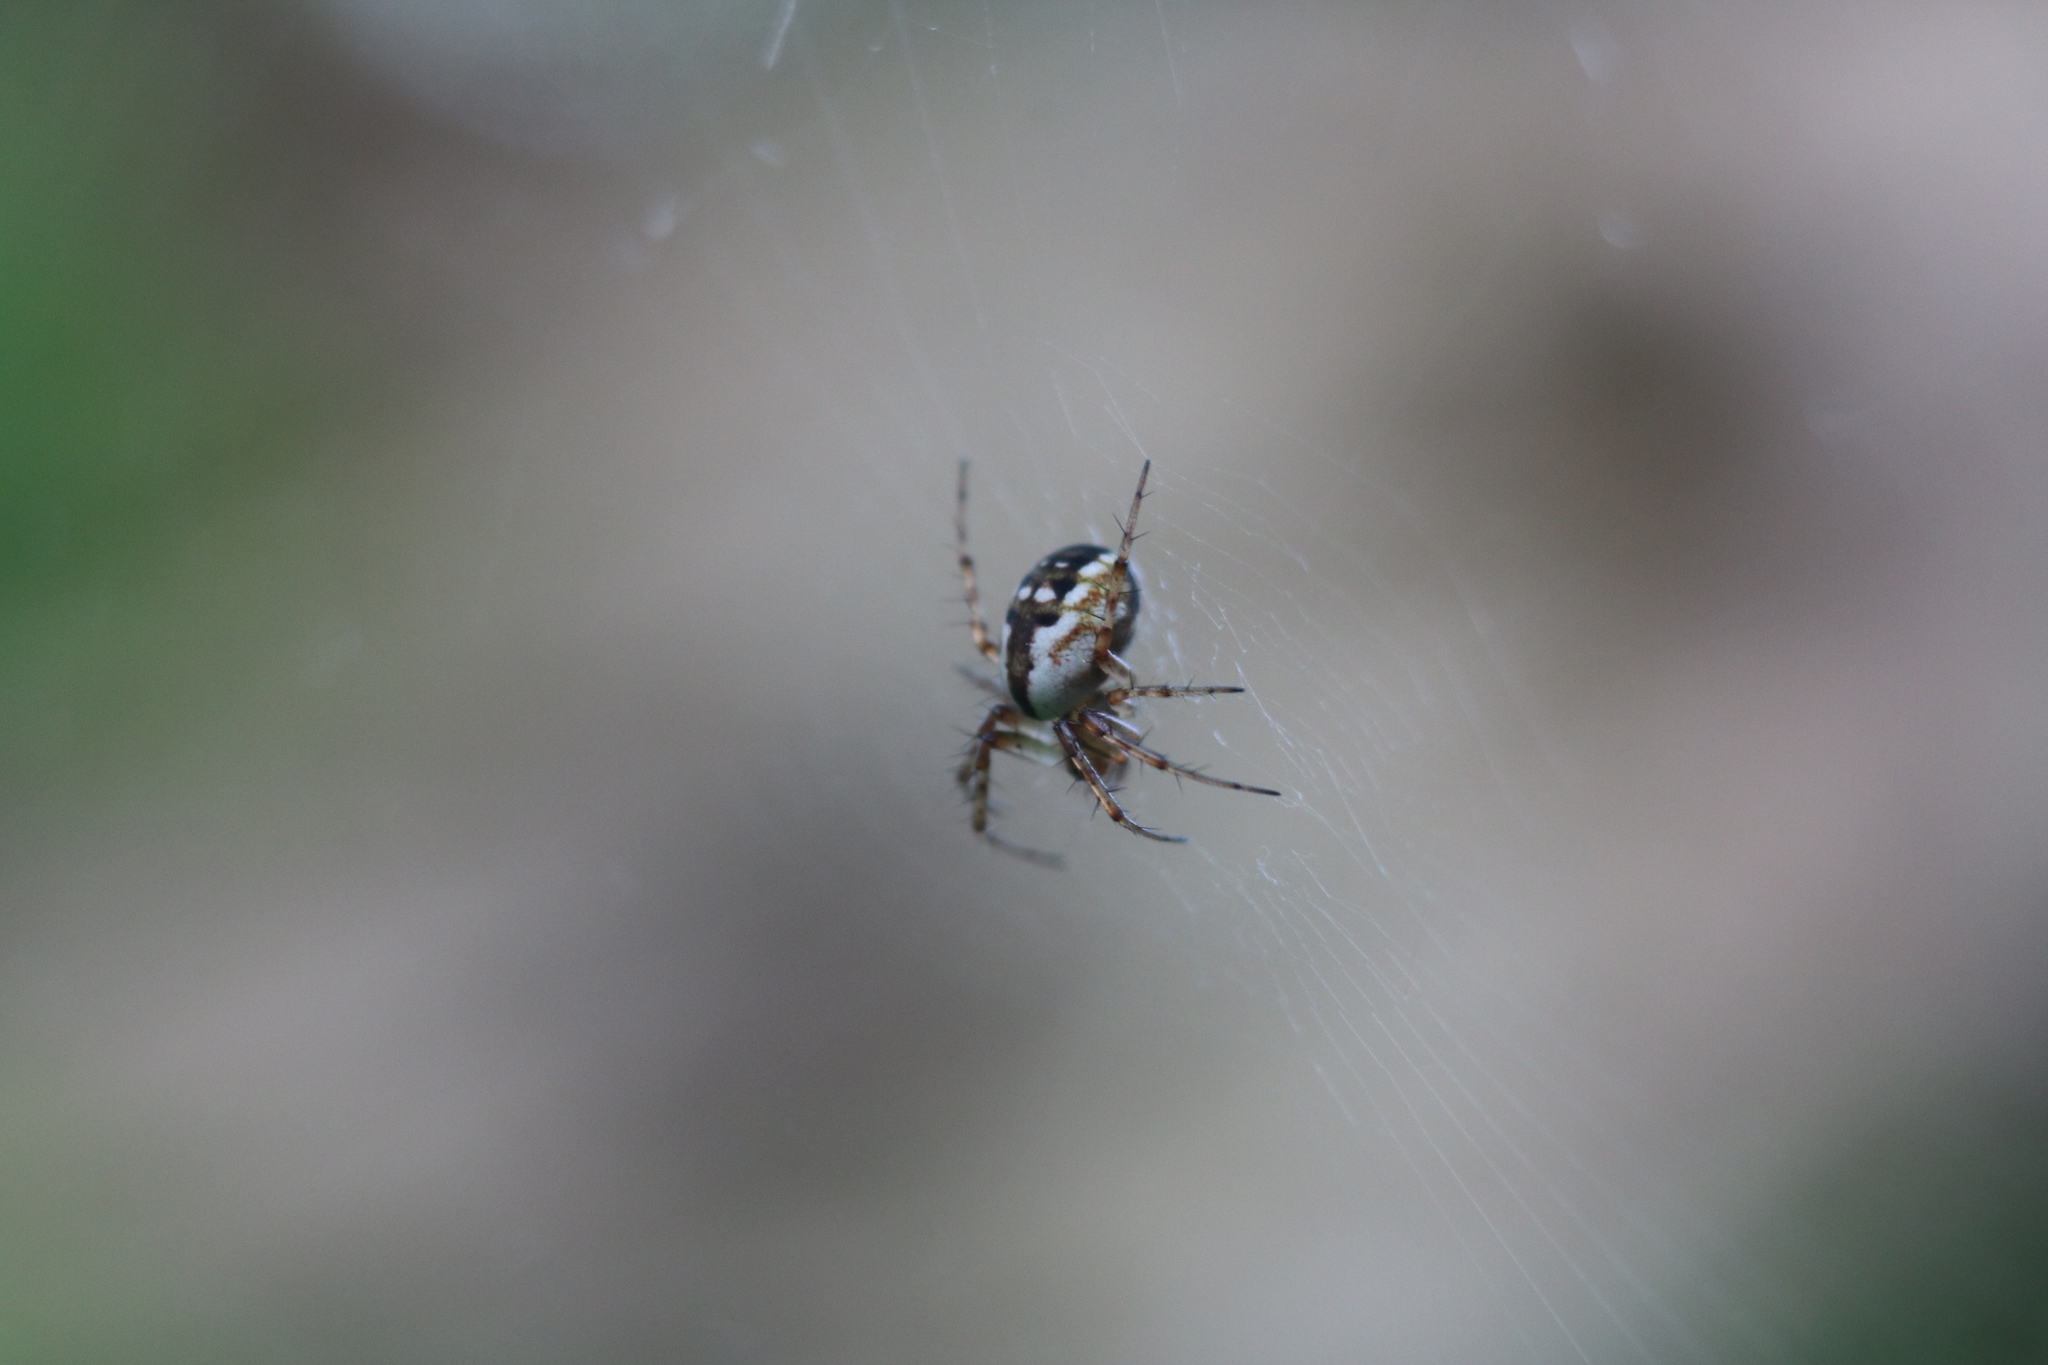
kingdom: Animalia
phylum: Arthropoda
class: Arachnida
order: Araneae
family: Araneidae
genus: Mangora
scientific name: Mangora placida
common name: Tuft-legged orbweaver
